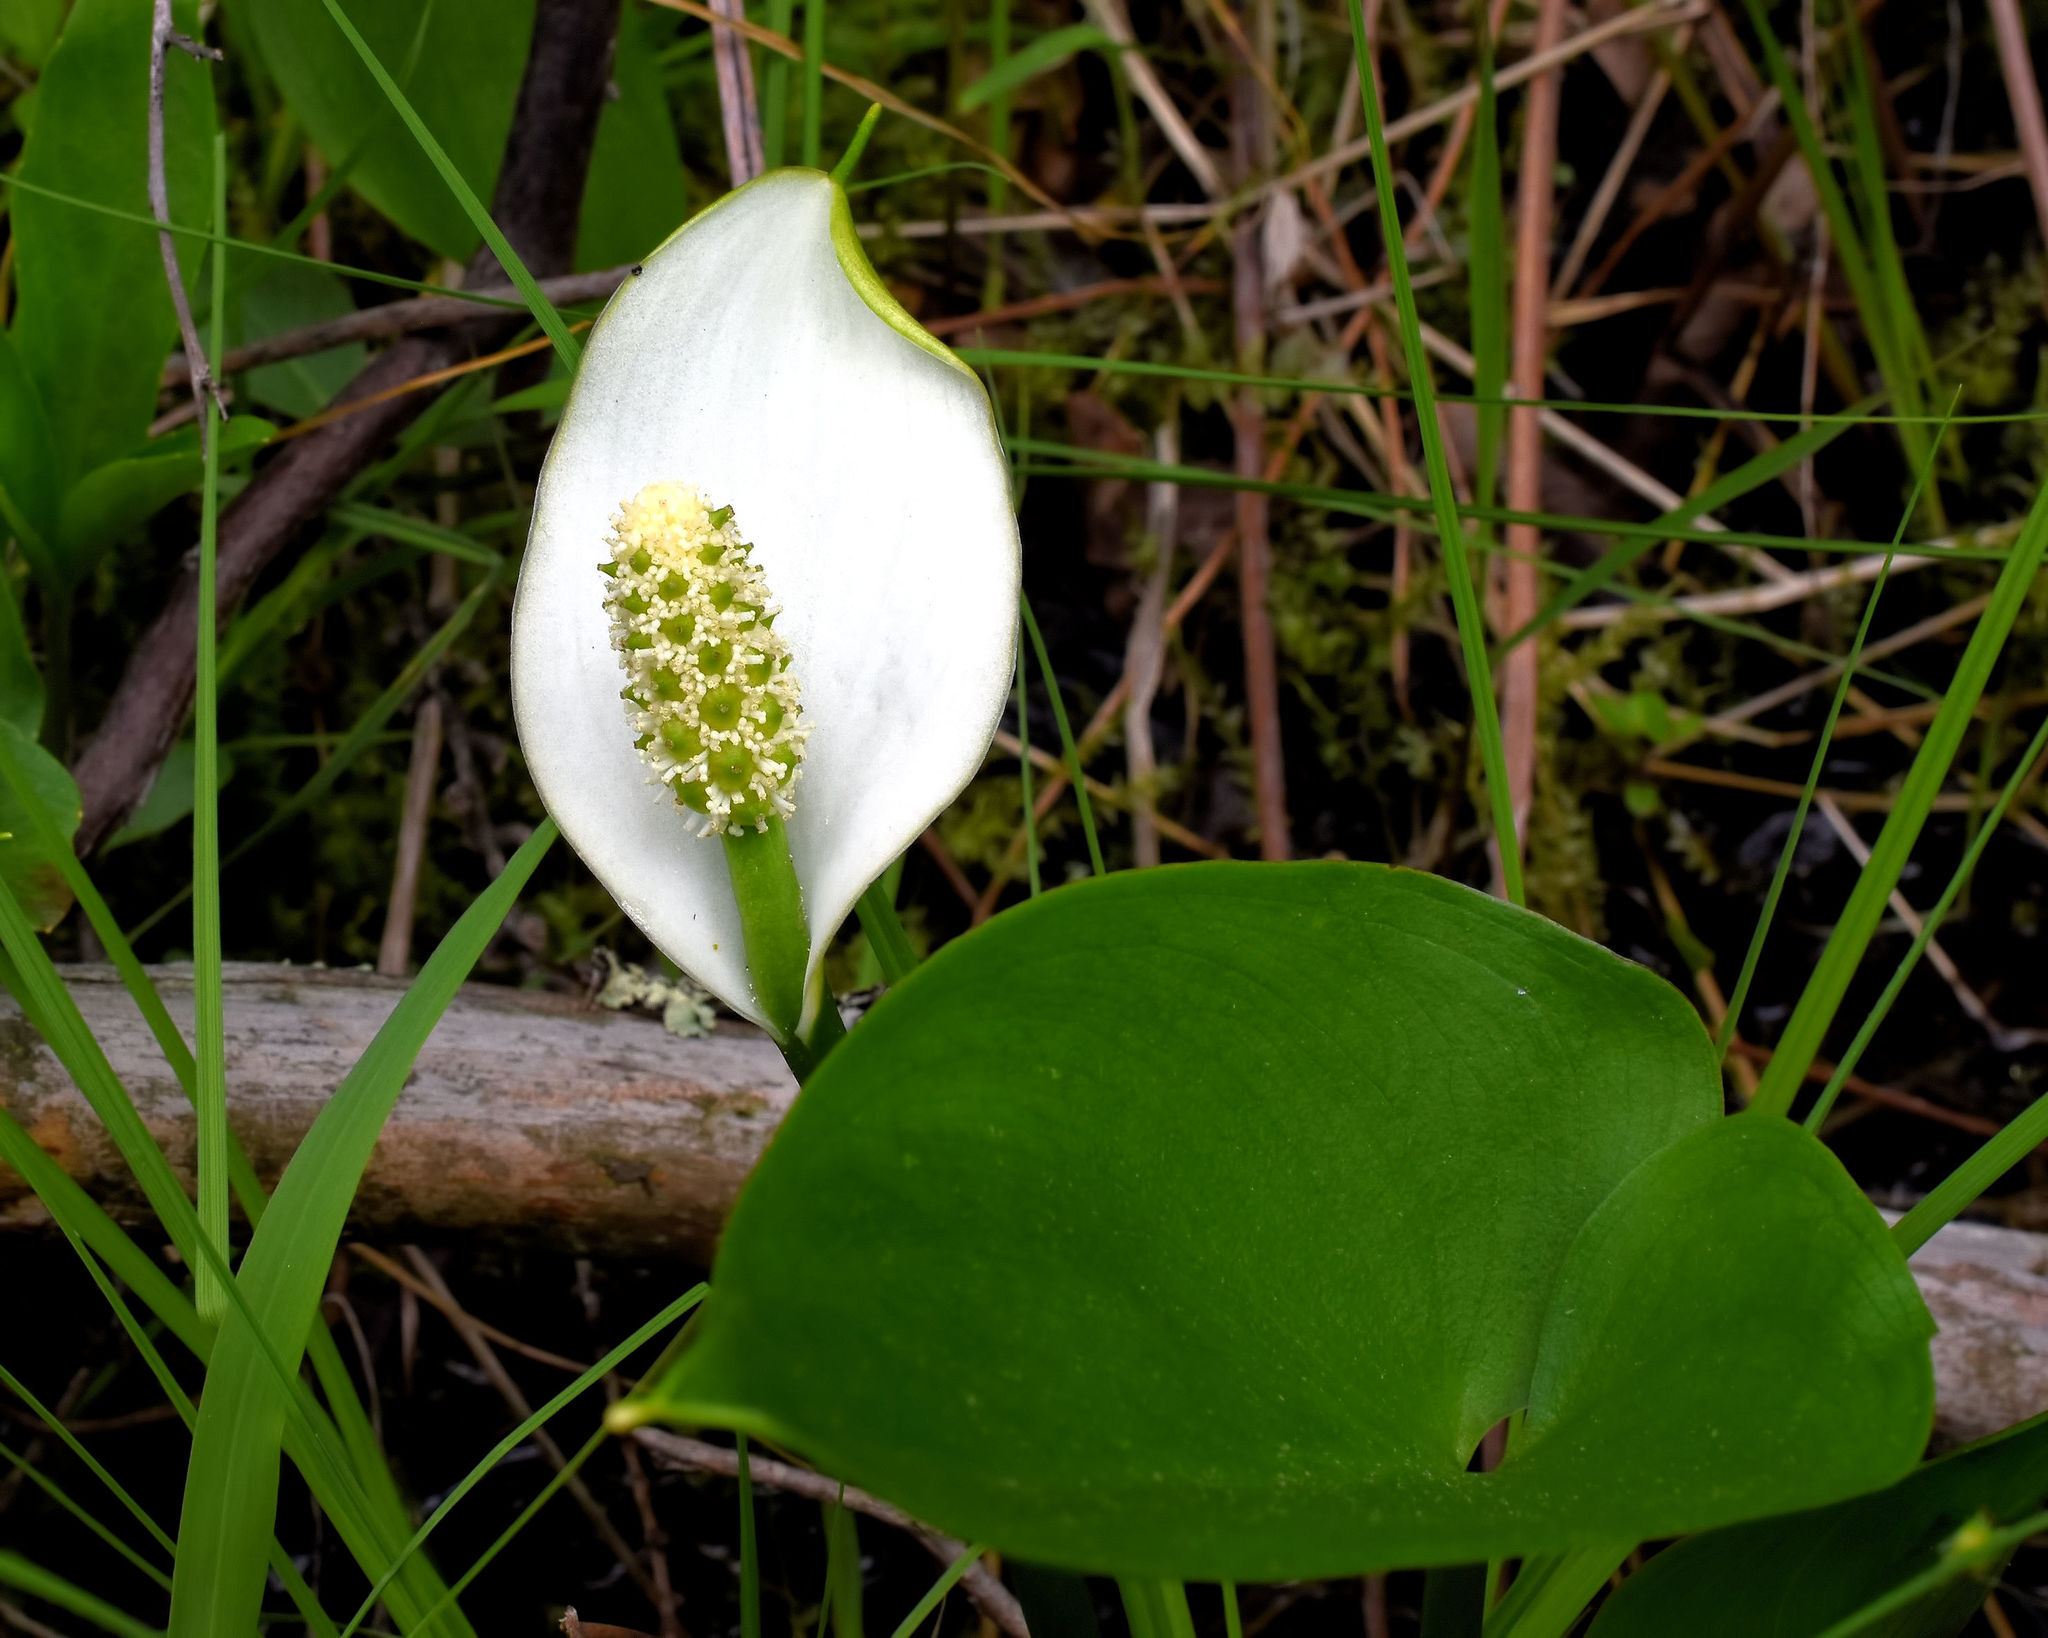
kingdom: Plantae
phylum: Tracheophyta
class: Liliopsida
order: Alismatales
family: Araceae
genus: Calla
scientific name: Calla palustris
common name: Bog arum
